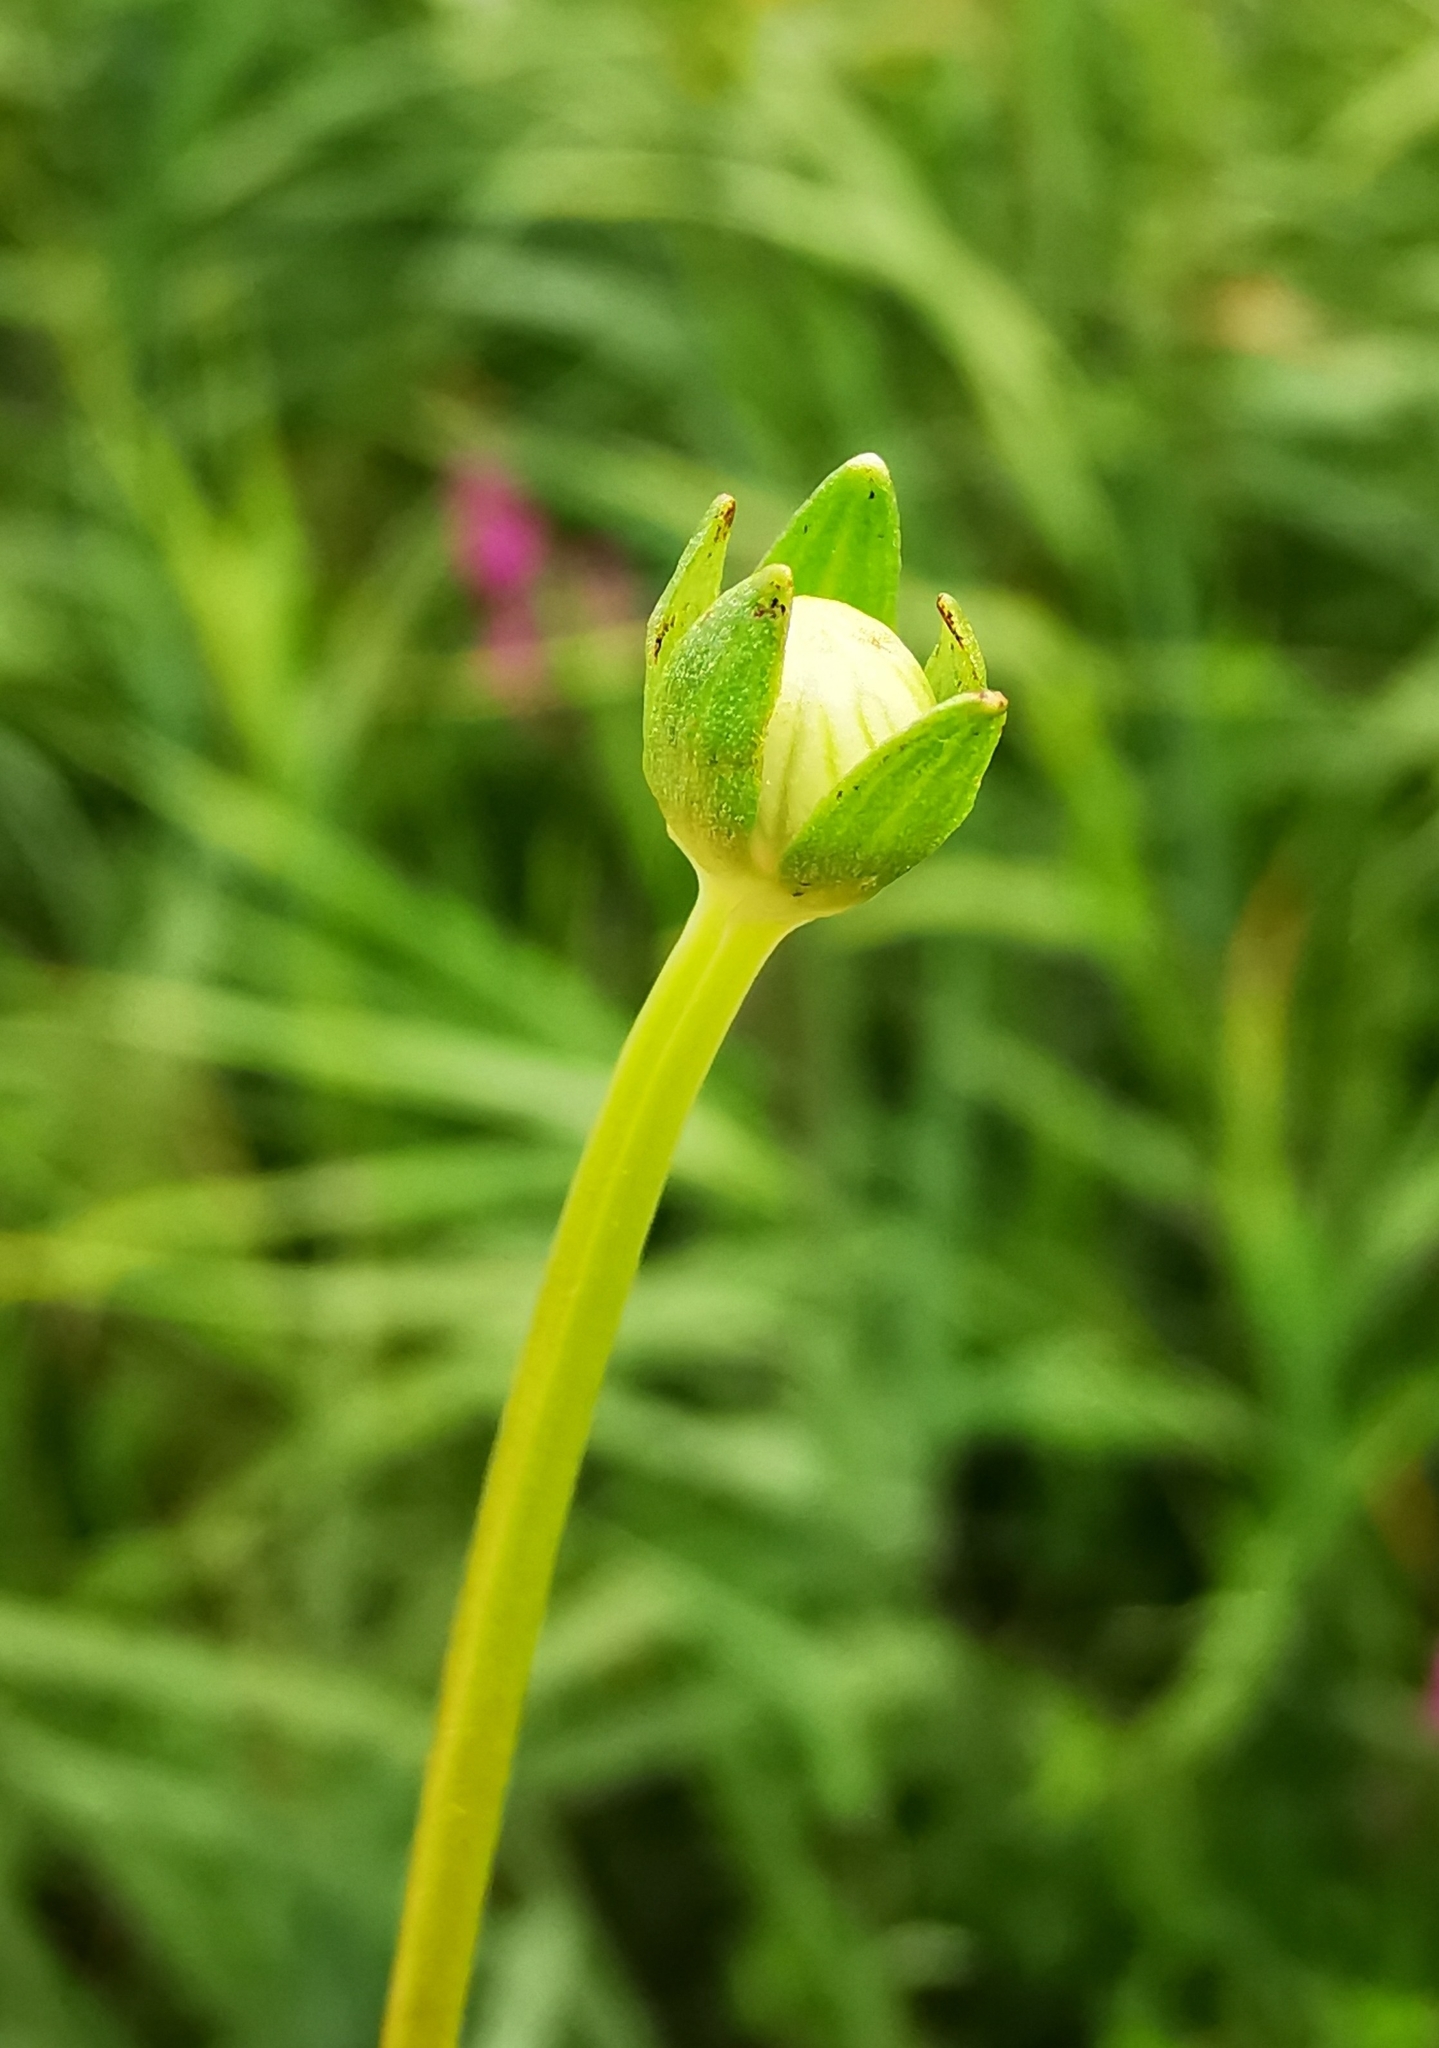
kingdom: Plantae
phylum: Tracheophyta
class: Magnoliopsida
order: Celastrales
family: Parnassiaceae
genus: Parnassia
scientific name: Parnassia palustris
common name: Grass-of-parnassus
